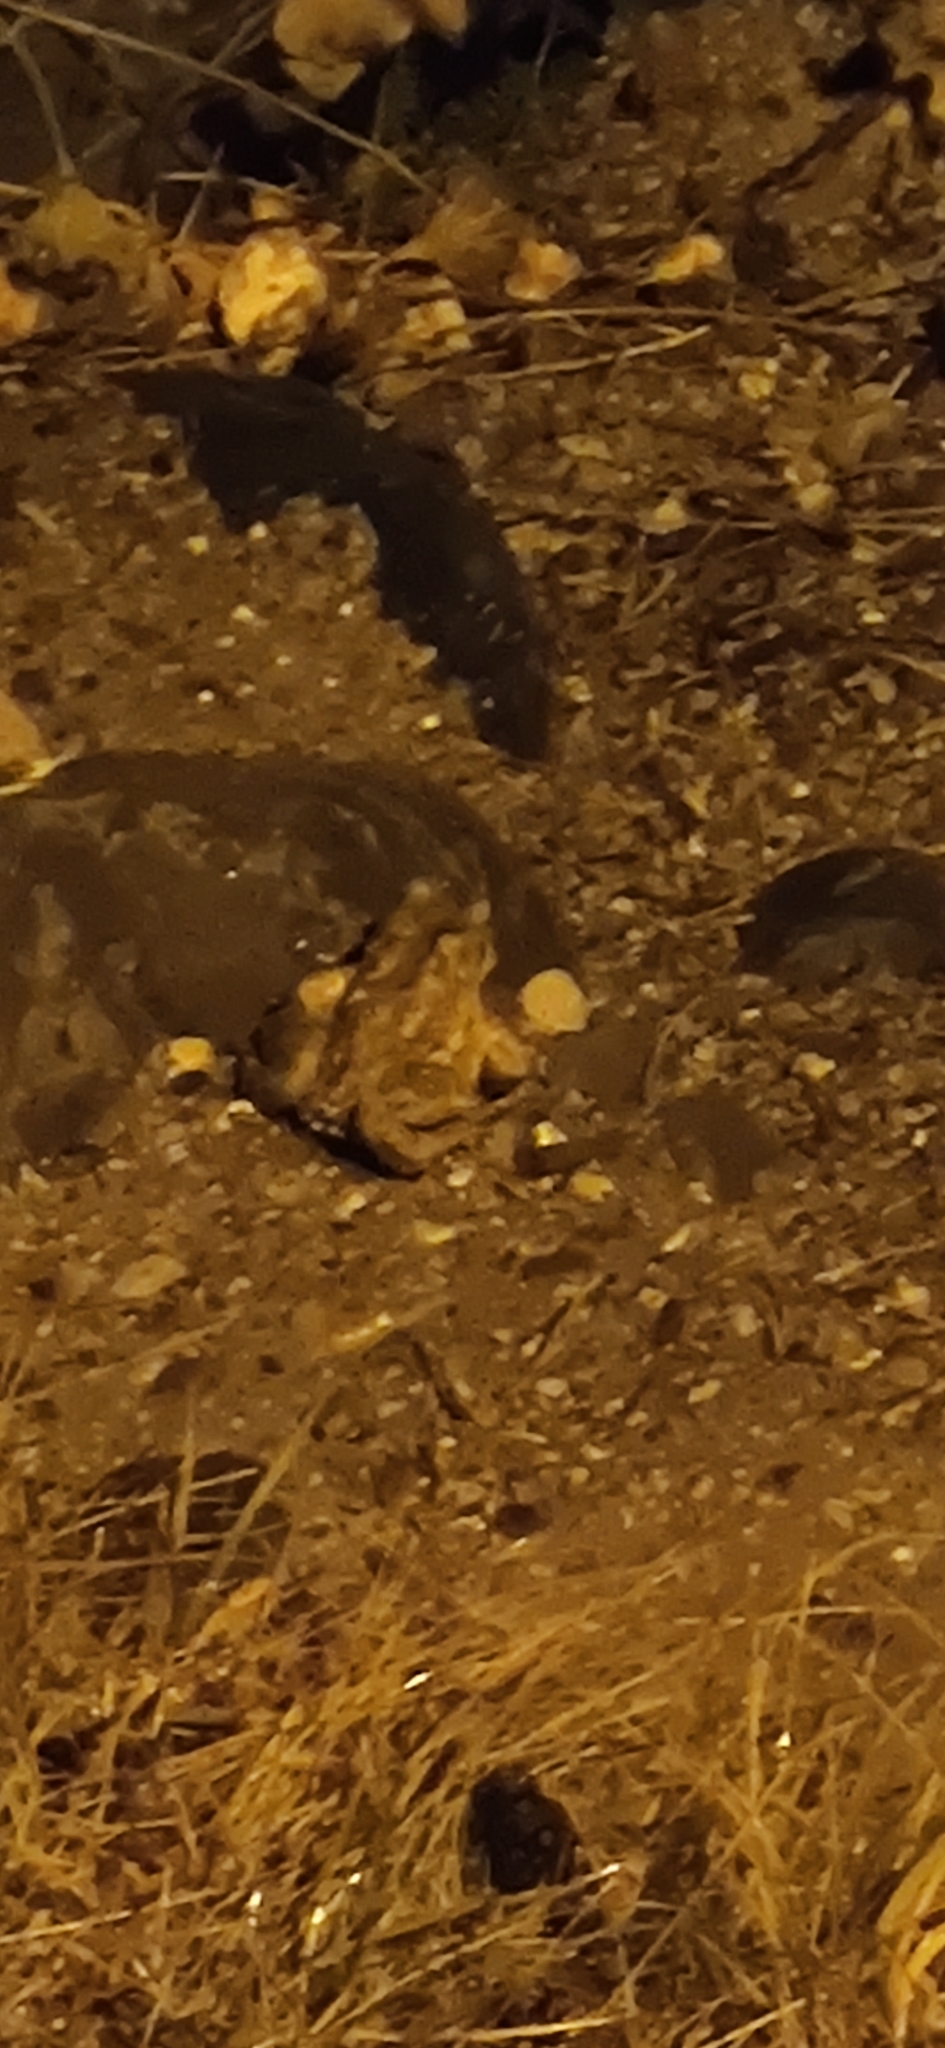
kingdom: Animalia
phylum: Chordata
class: Amphibia
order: Anura
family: Bufonidae
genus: Bufo
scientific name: Bufo
